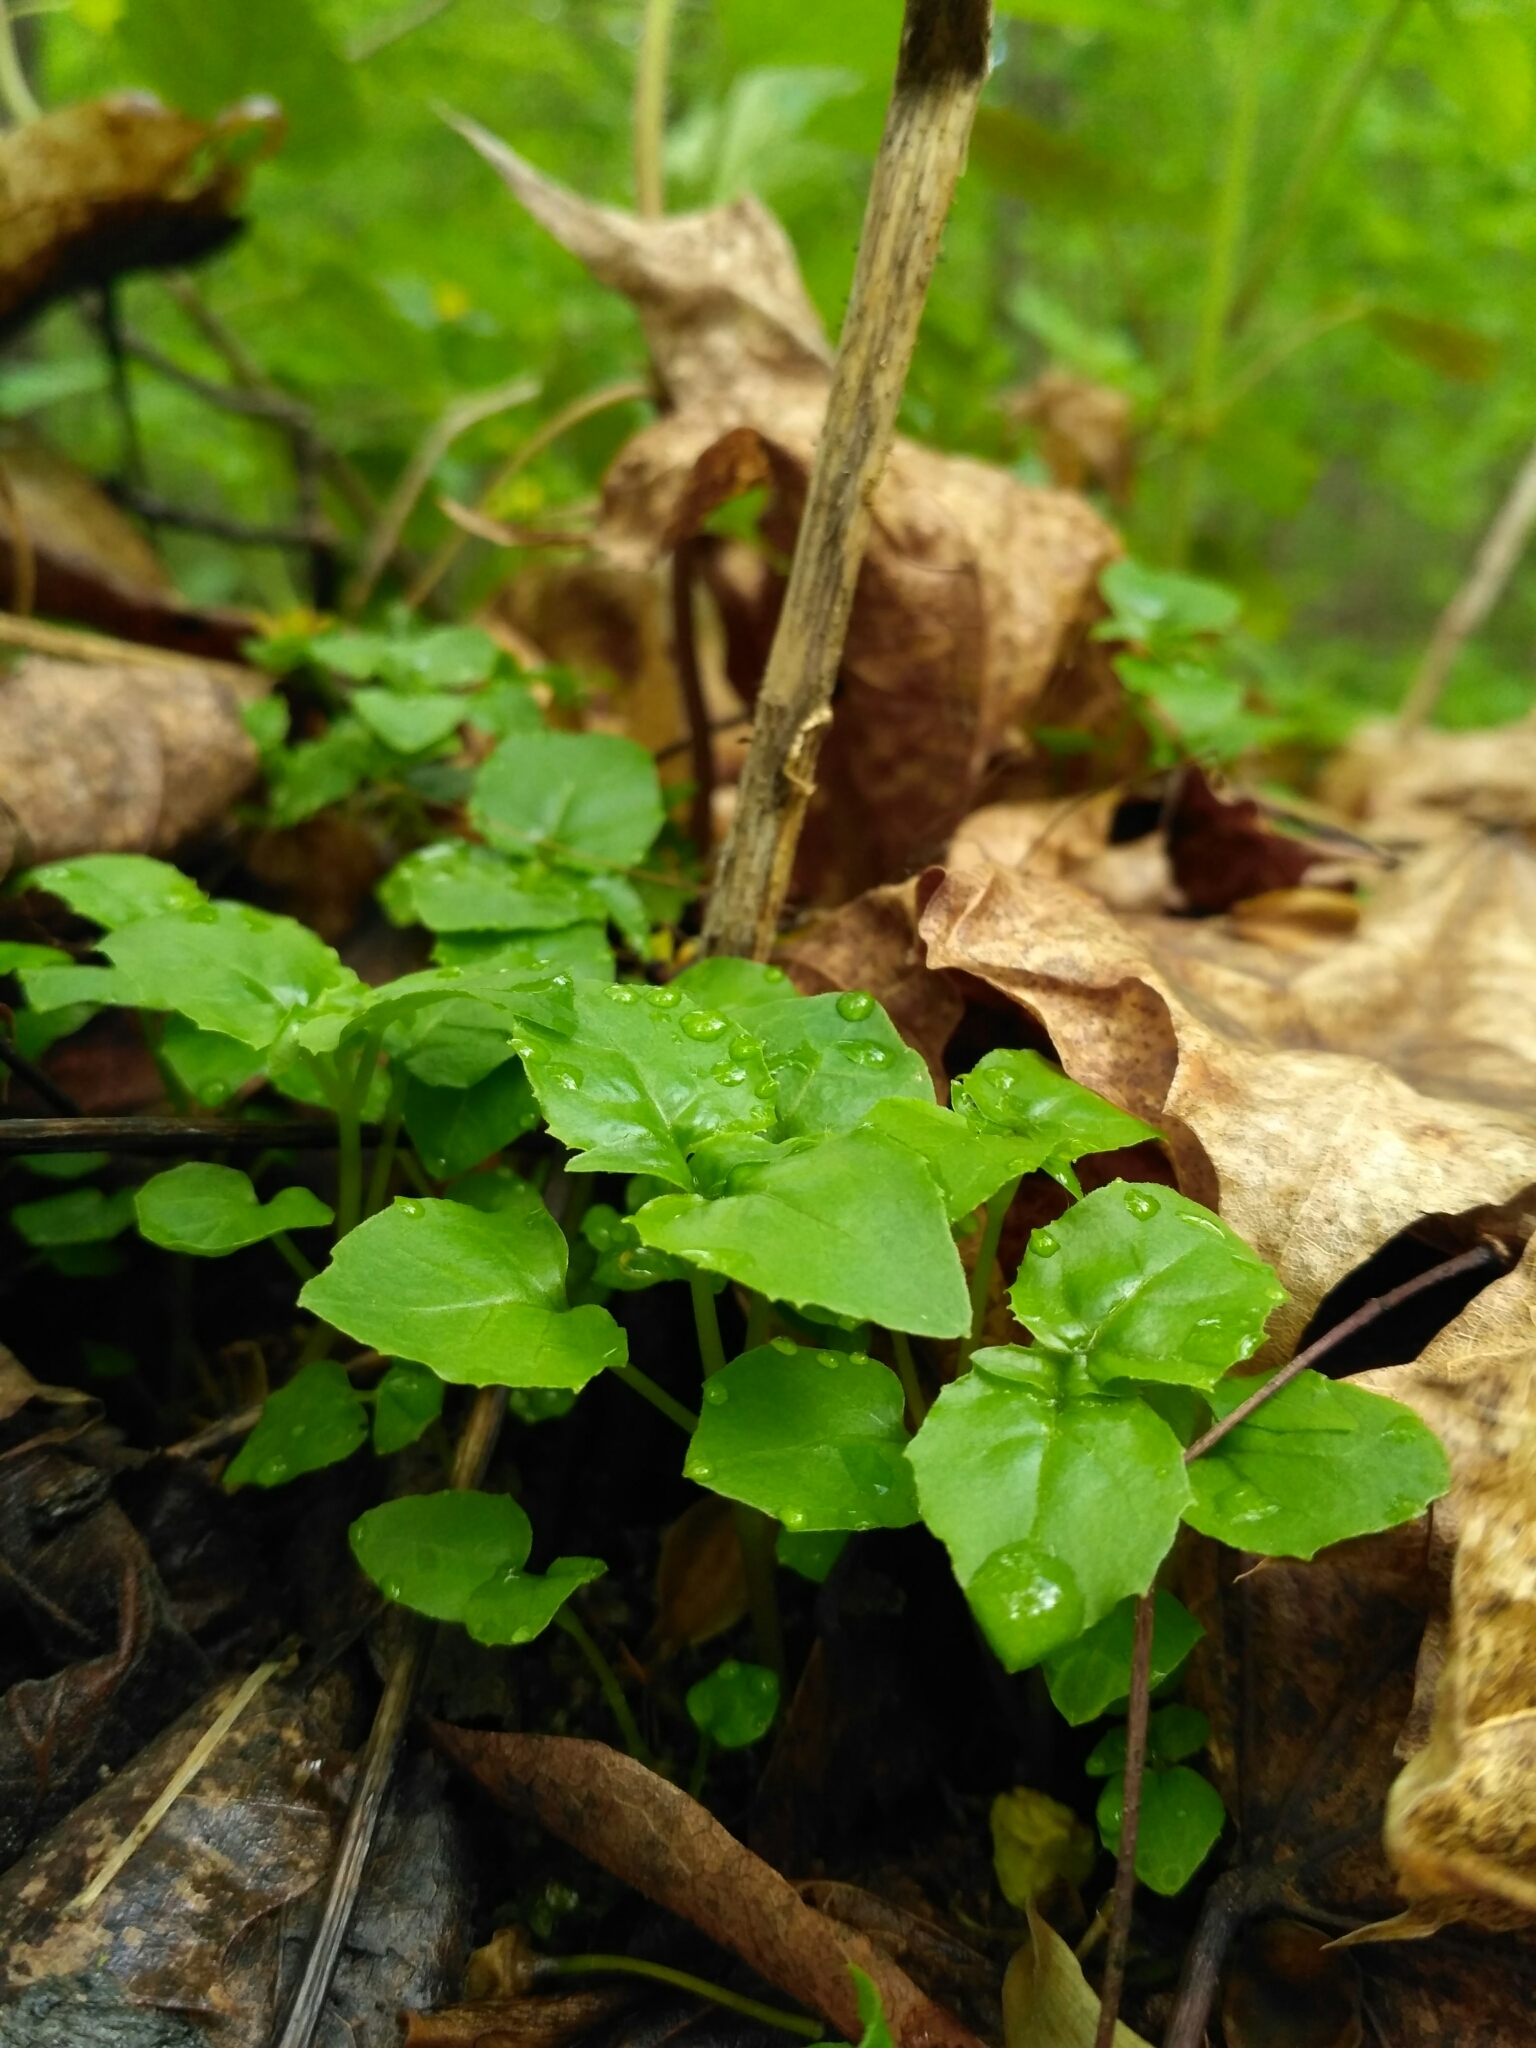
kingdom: Plantae
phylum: Tracheophyta
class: Magnoliopsida
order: Myrtales
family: Onagraceae
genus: Circaea
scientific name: Circaea alpina
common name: Alpine enchanter's-nightshade
